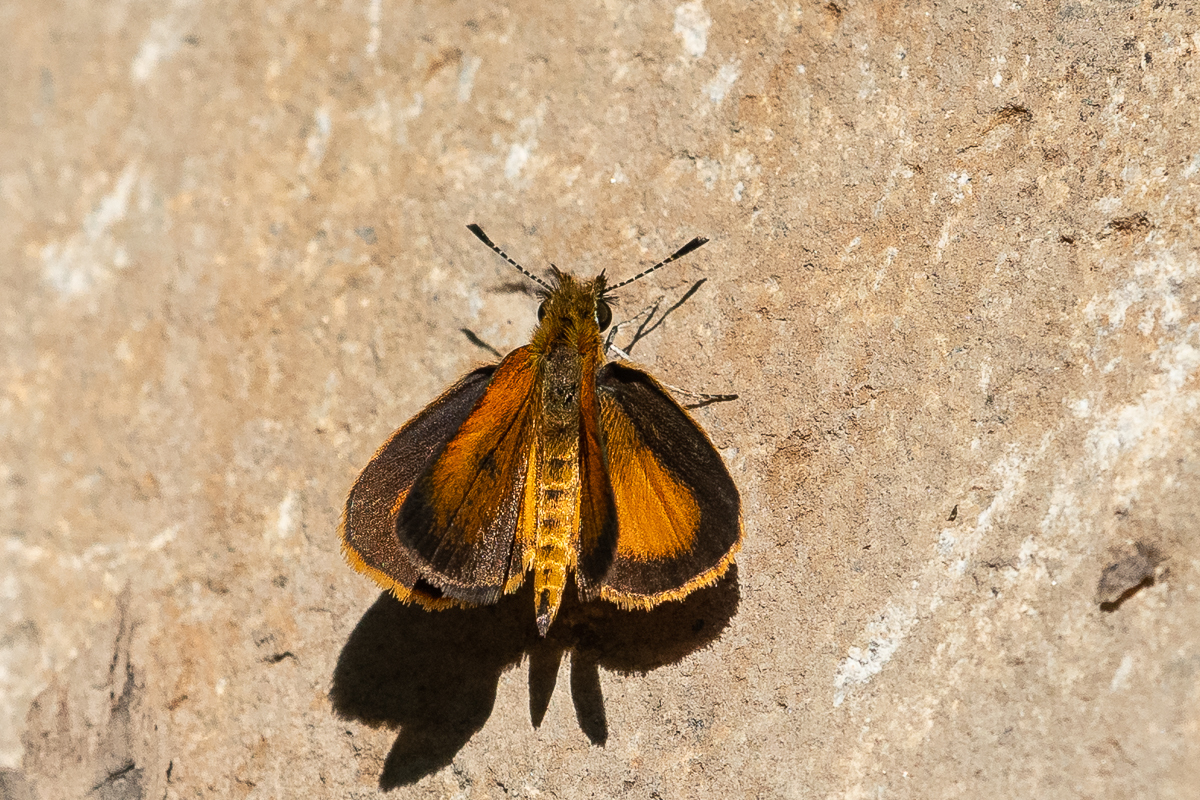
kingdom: Animalia
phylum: Arthropoda
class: Insecta
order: Lepidoptera
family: Hesperiidae
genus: Ancyloxypha
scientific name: Ancyloxypha numitor
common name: Least skipper
